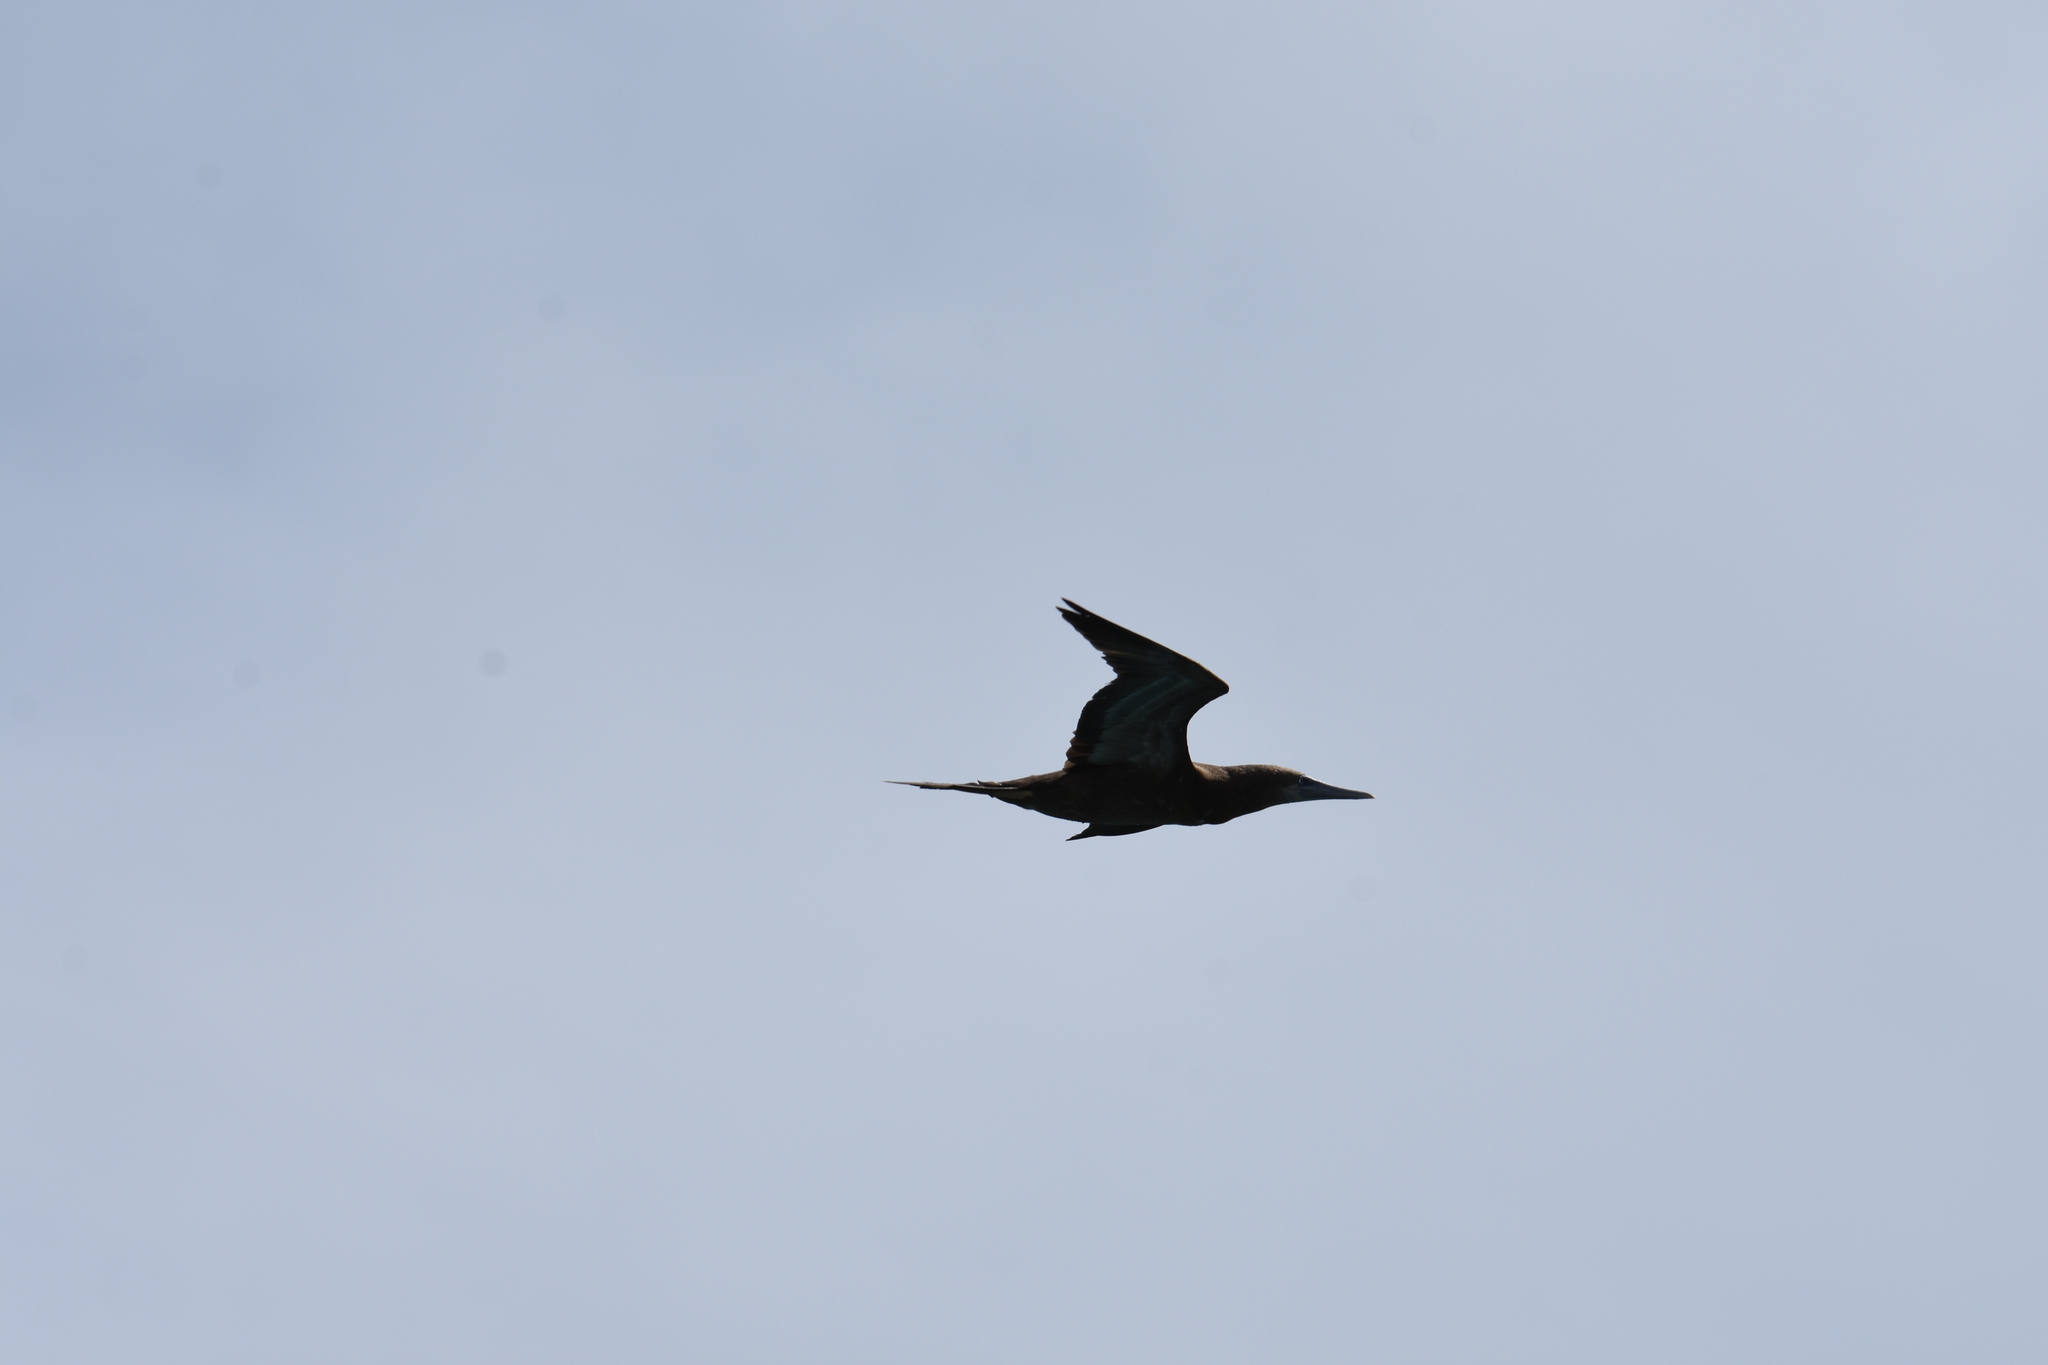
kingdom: Animalia
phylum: Chordata
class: Aves
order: Suliformes
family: Sulidae
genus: Sula
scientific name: Sula leucogaster
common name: Brown booby
